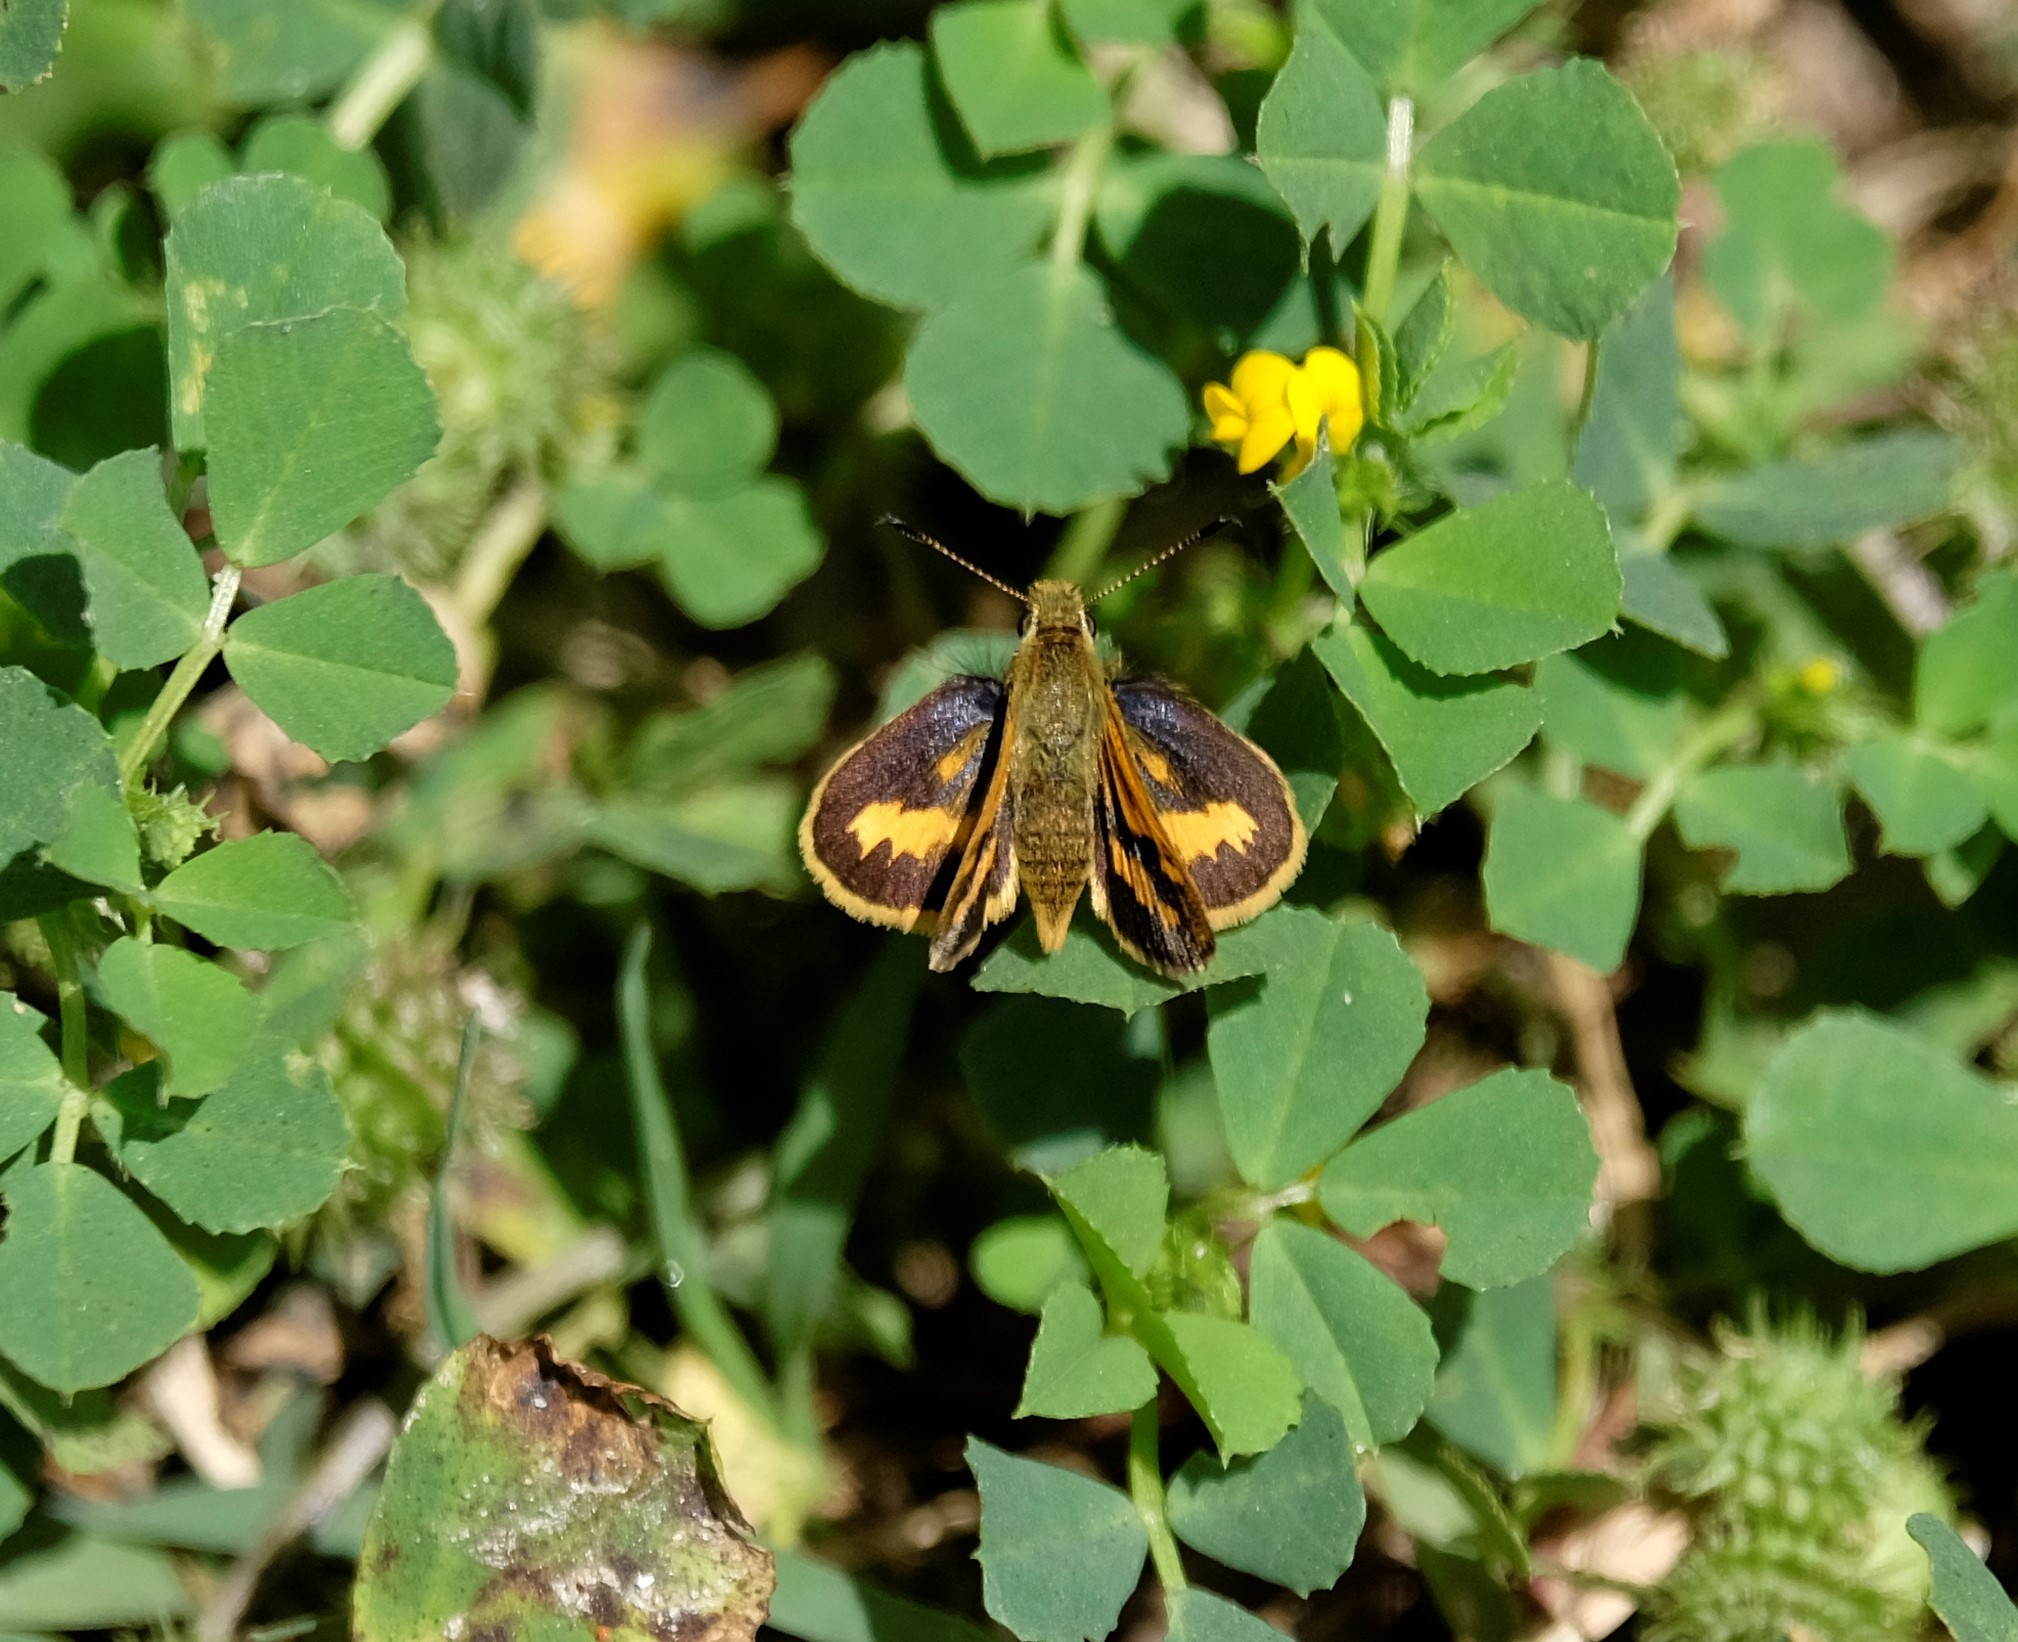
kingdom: Animalia
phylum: Arthropoda
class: Insecta
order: Lepidoptera
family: Hesperiidae
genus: Ocybadistes
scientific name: Ocybadistes walkeri
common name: Yellow-banded dart
